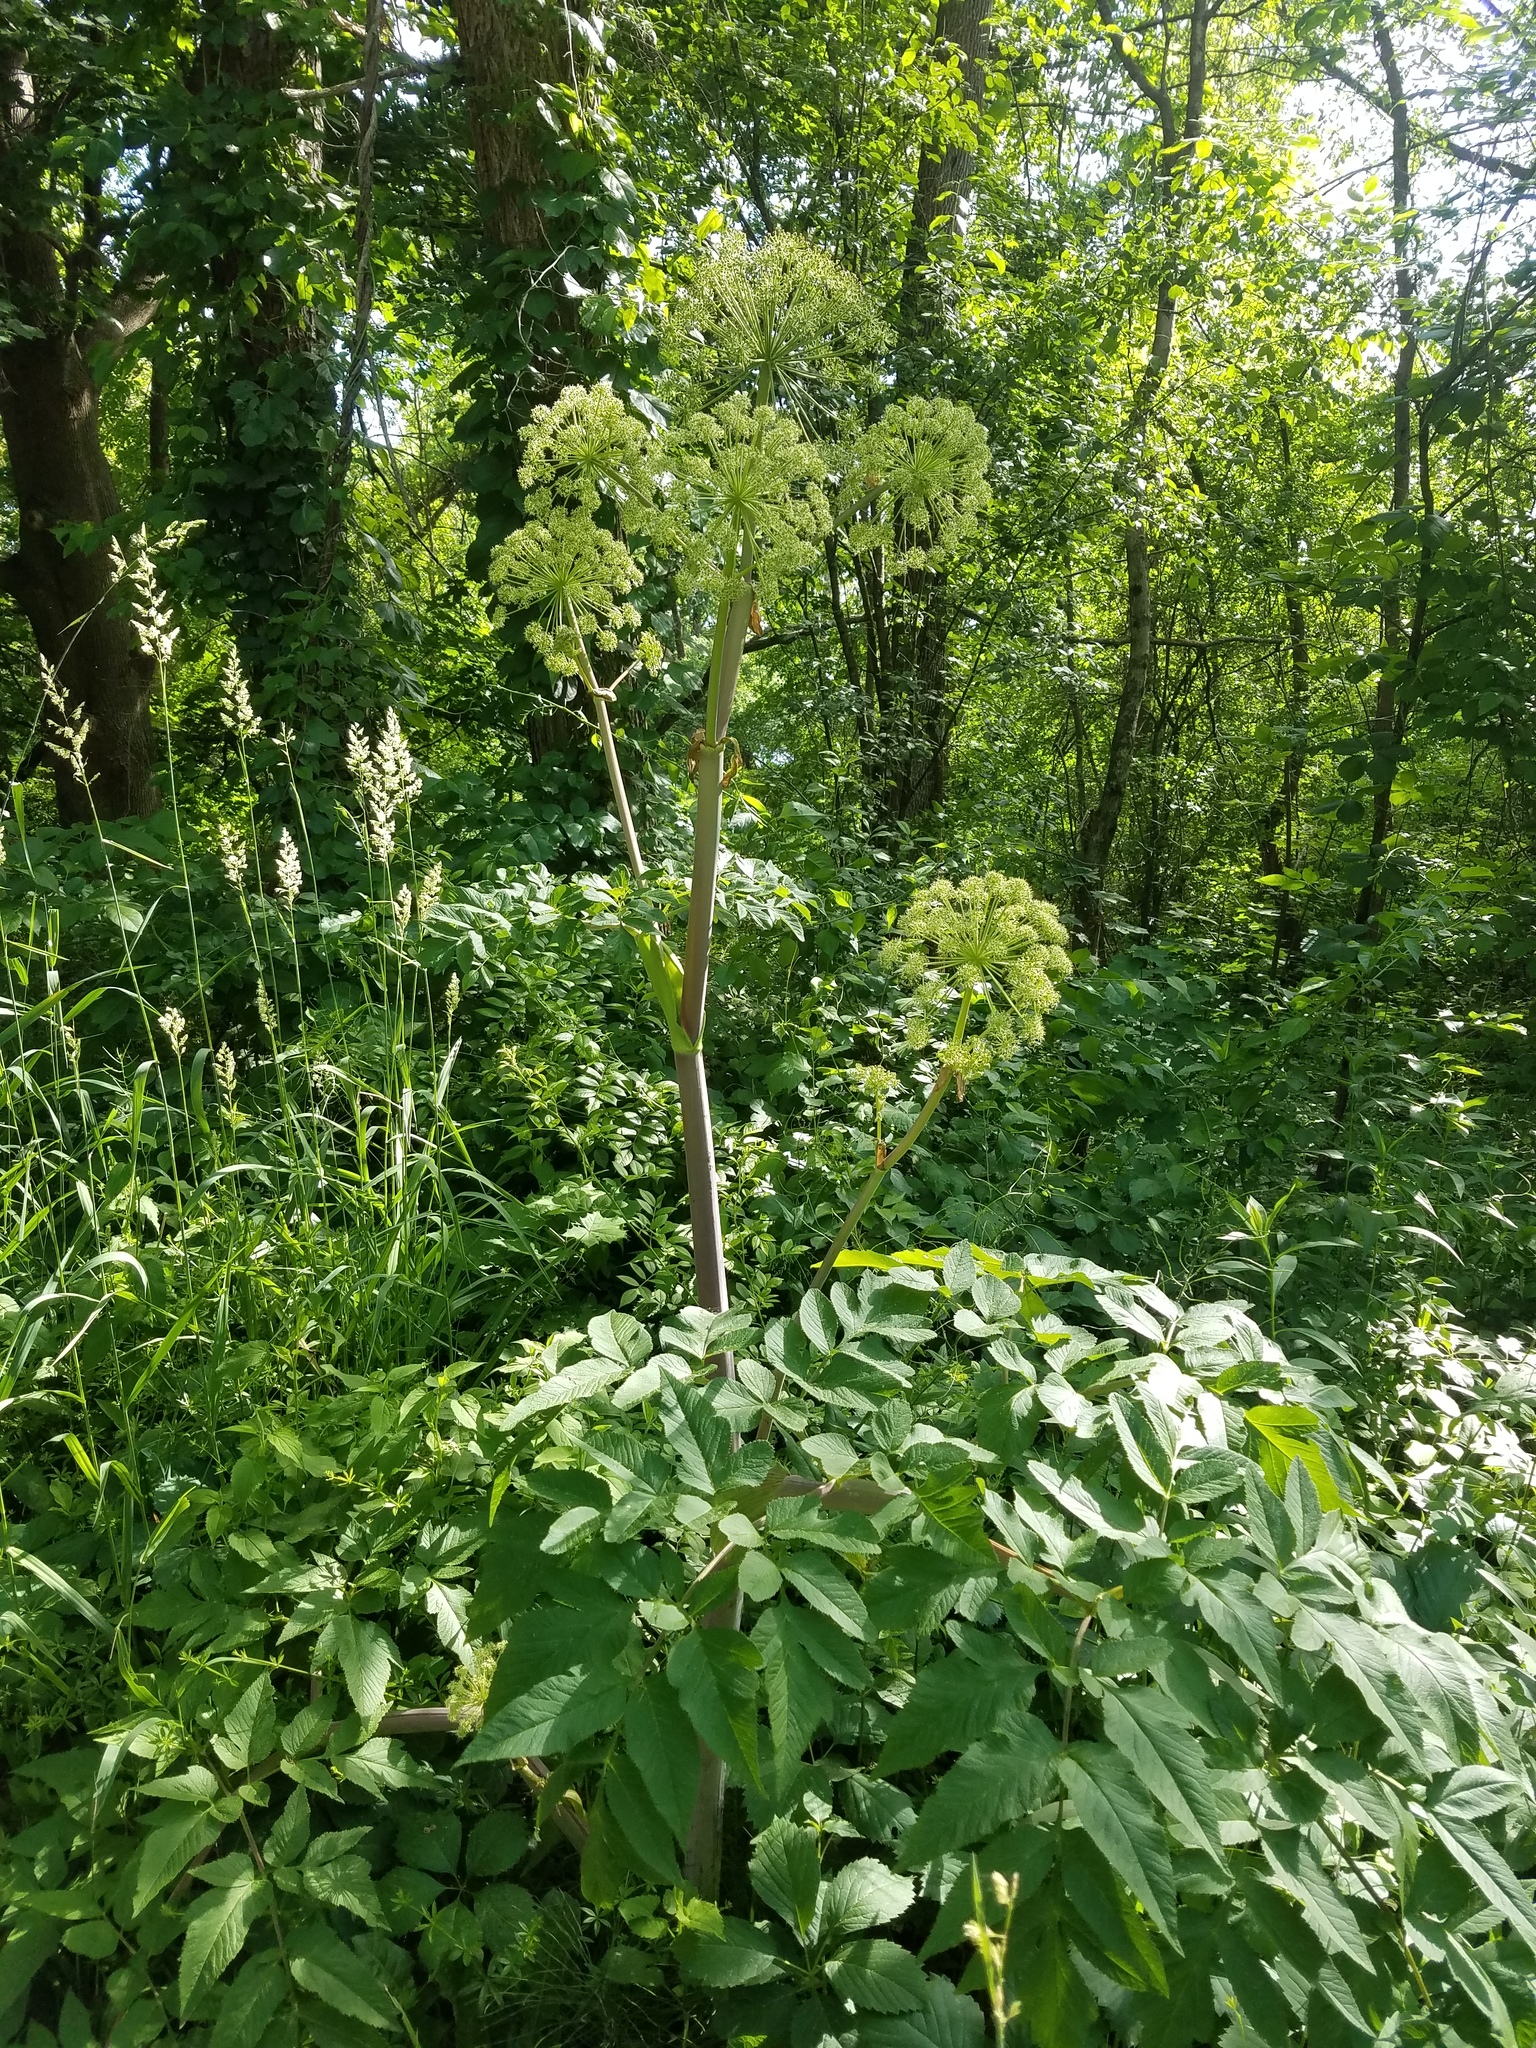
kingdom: Plantae
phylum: Tracheophyta
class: Magnoliopsida
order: Apiales
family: Apiaceae
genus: Angelica
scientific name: Angelica atropurpurea
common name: Great angelica
